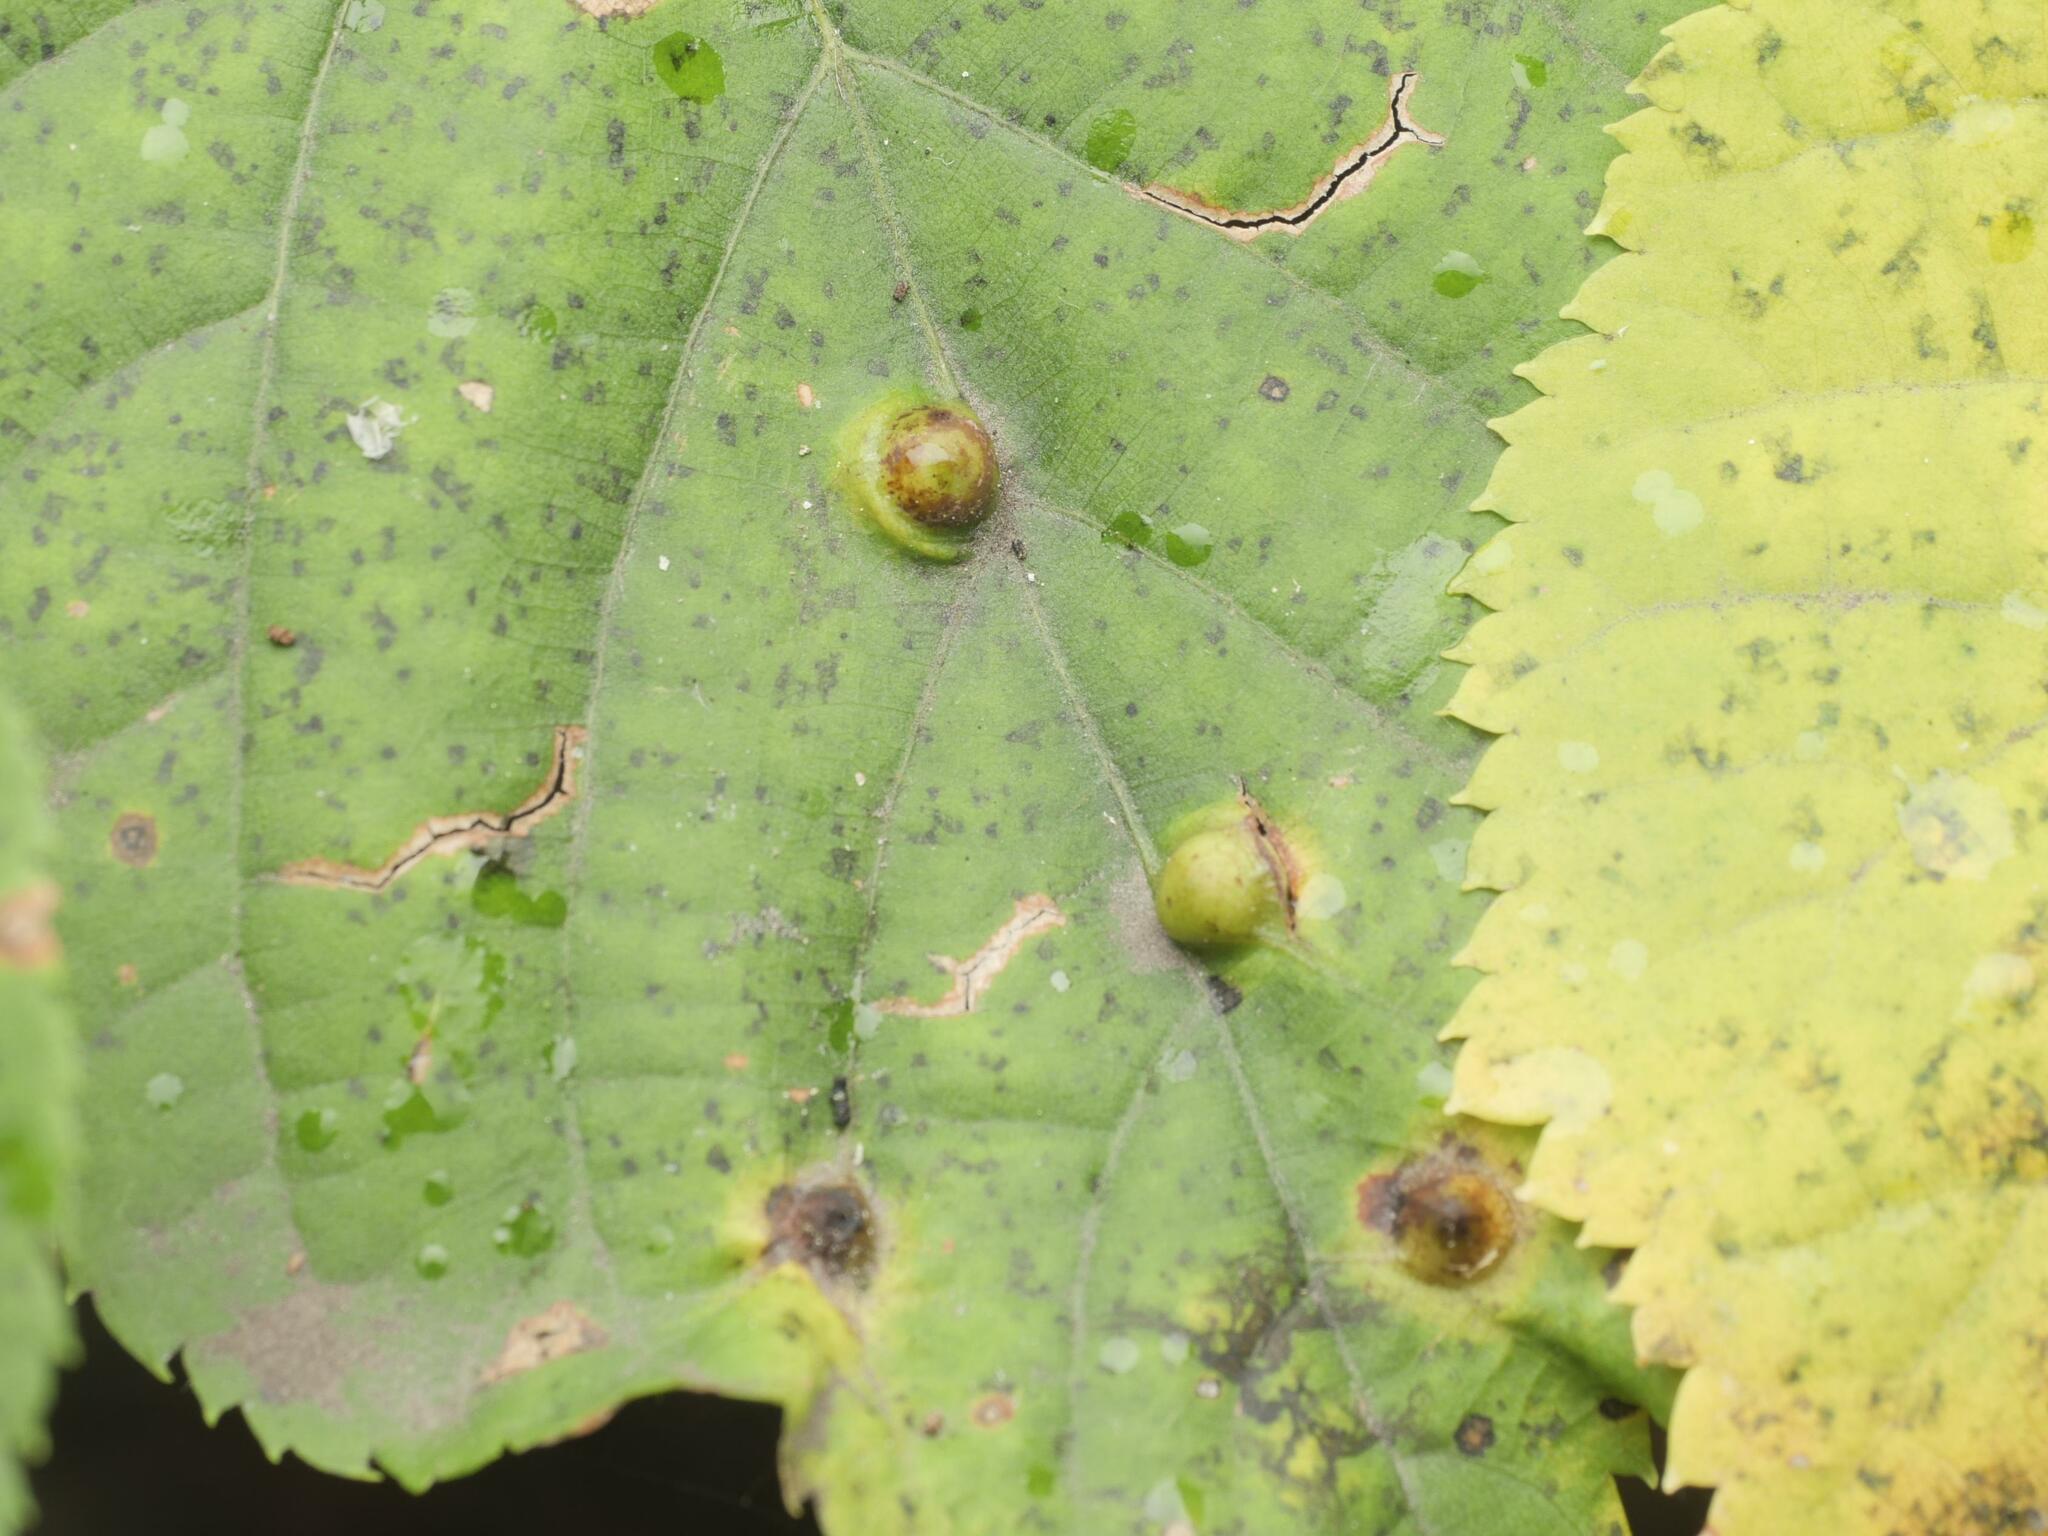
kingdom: Animalia
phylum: Arthropoda
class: Insecta
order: Diptera
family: Cecidomyiidae
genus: Didymomyia
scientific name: Didymomyia tiliacea
